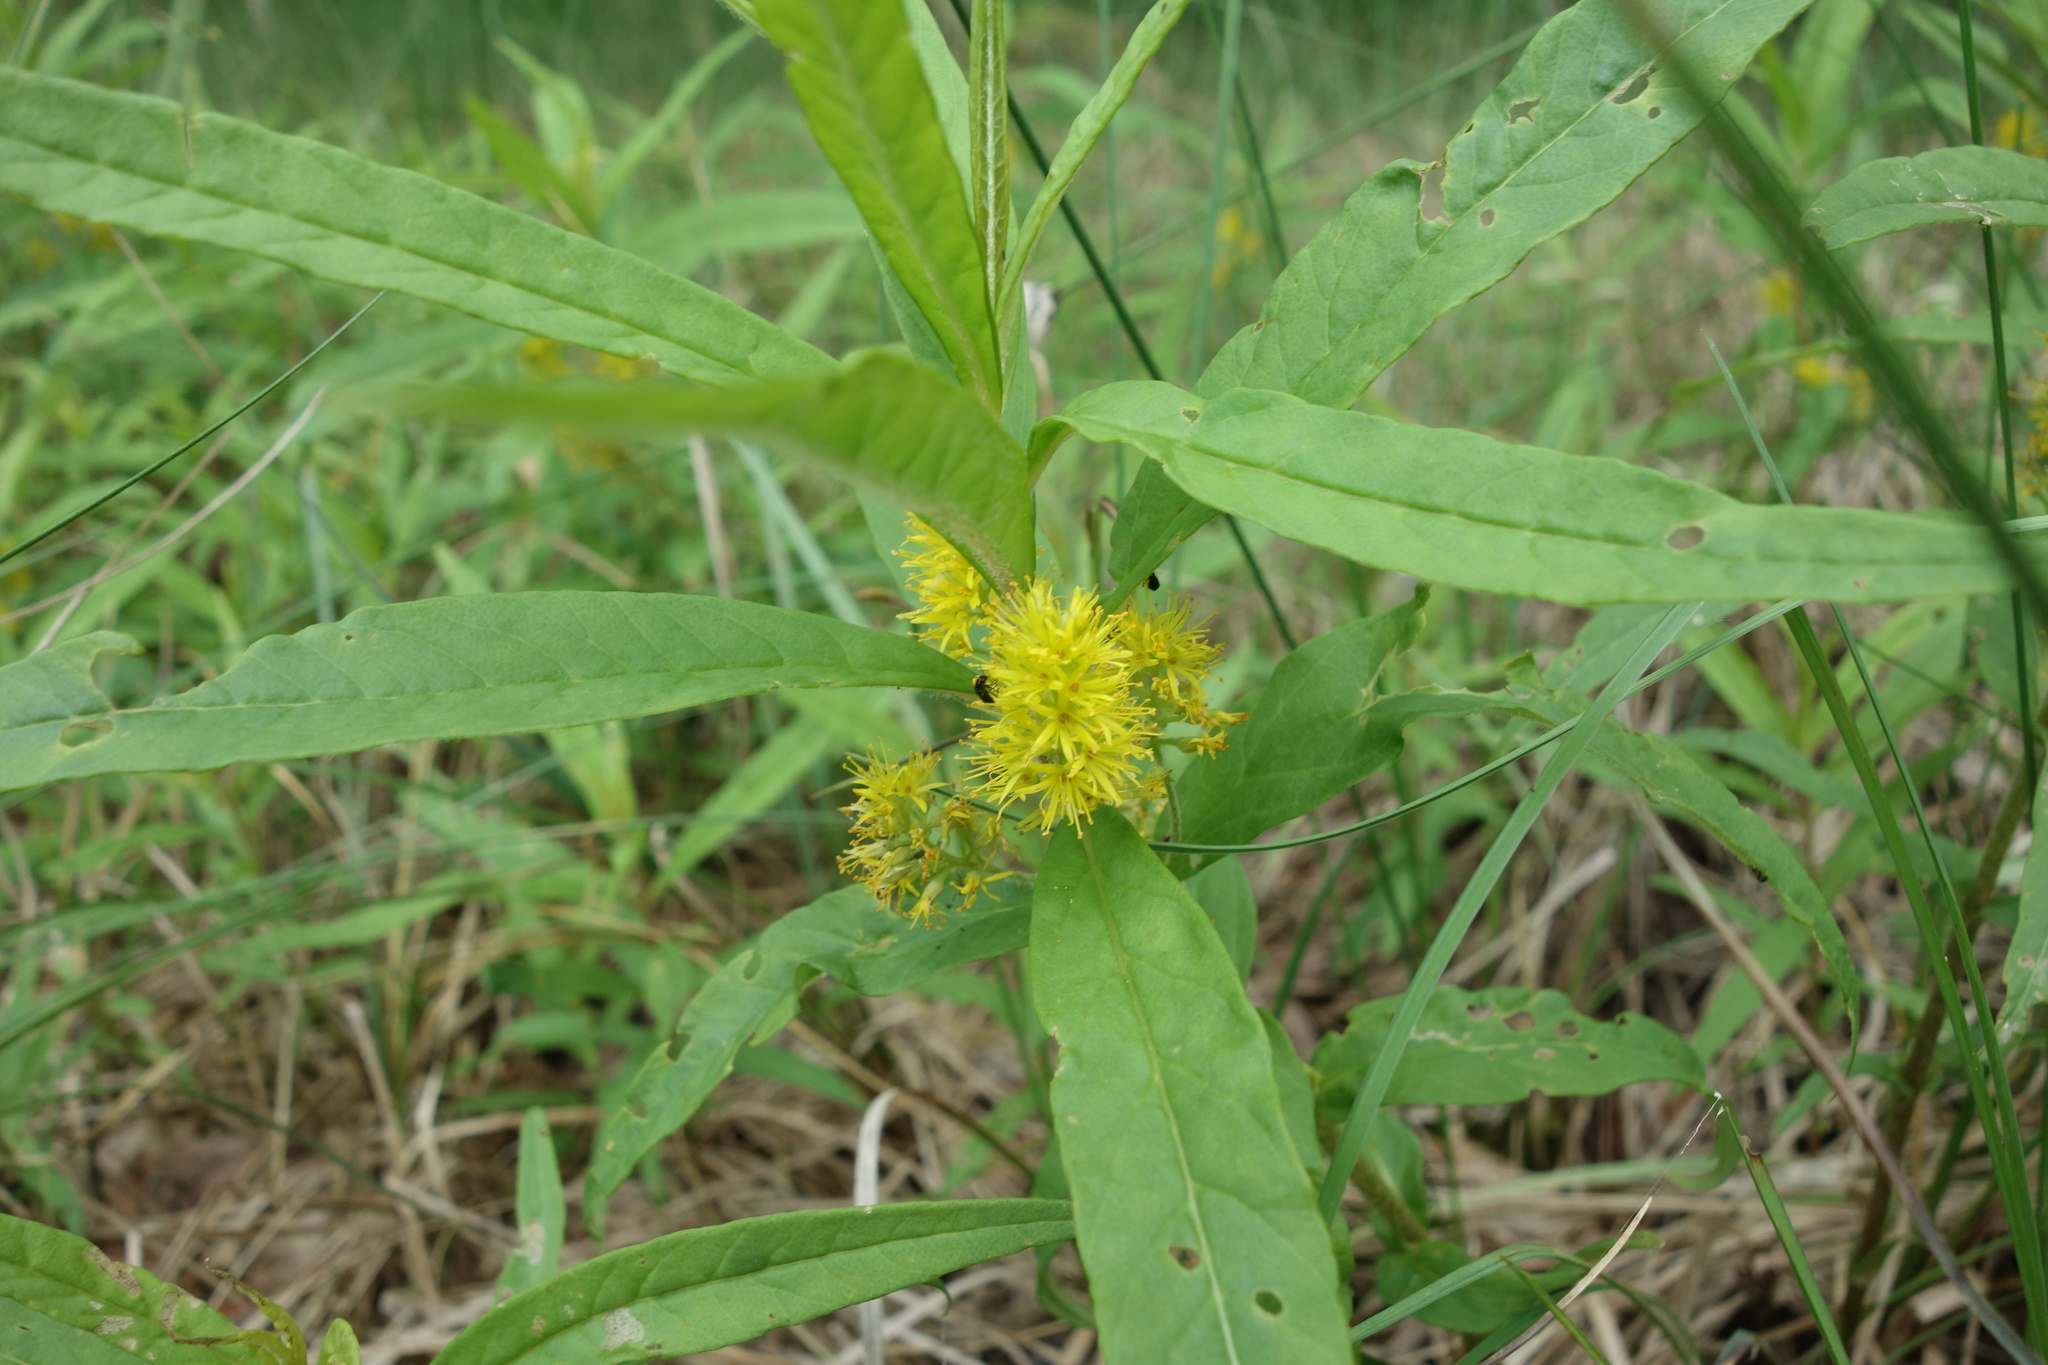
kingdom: Plantae
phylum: Tracheophyta
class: Magnoliopsida
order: Ericales
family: Primulaceae
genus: Lysimachia
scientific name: Lysimachia thyrsiflora
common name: Tufted loosestrife
